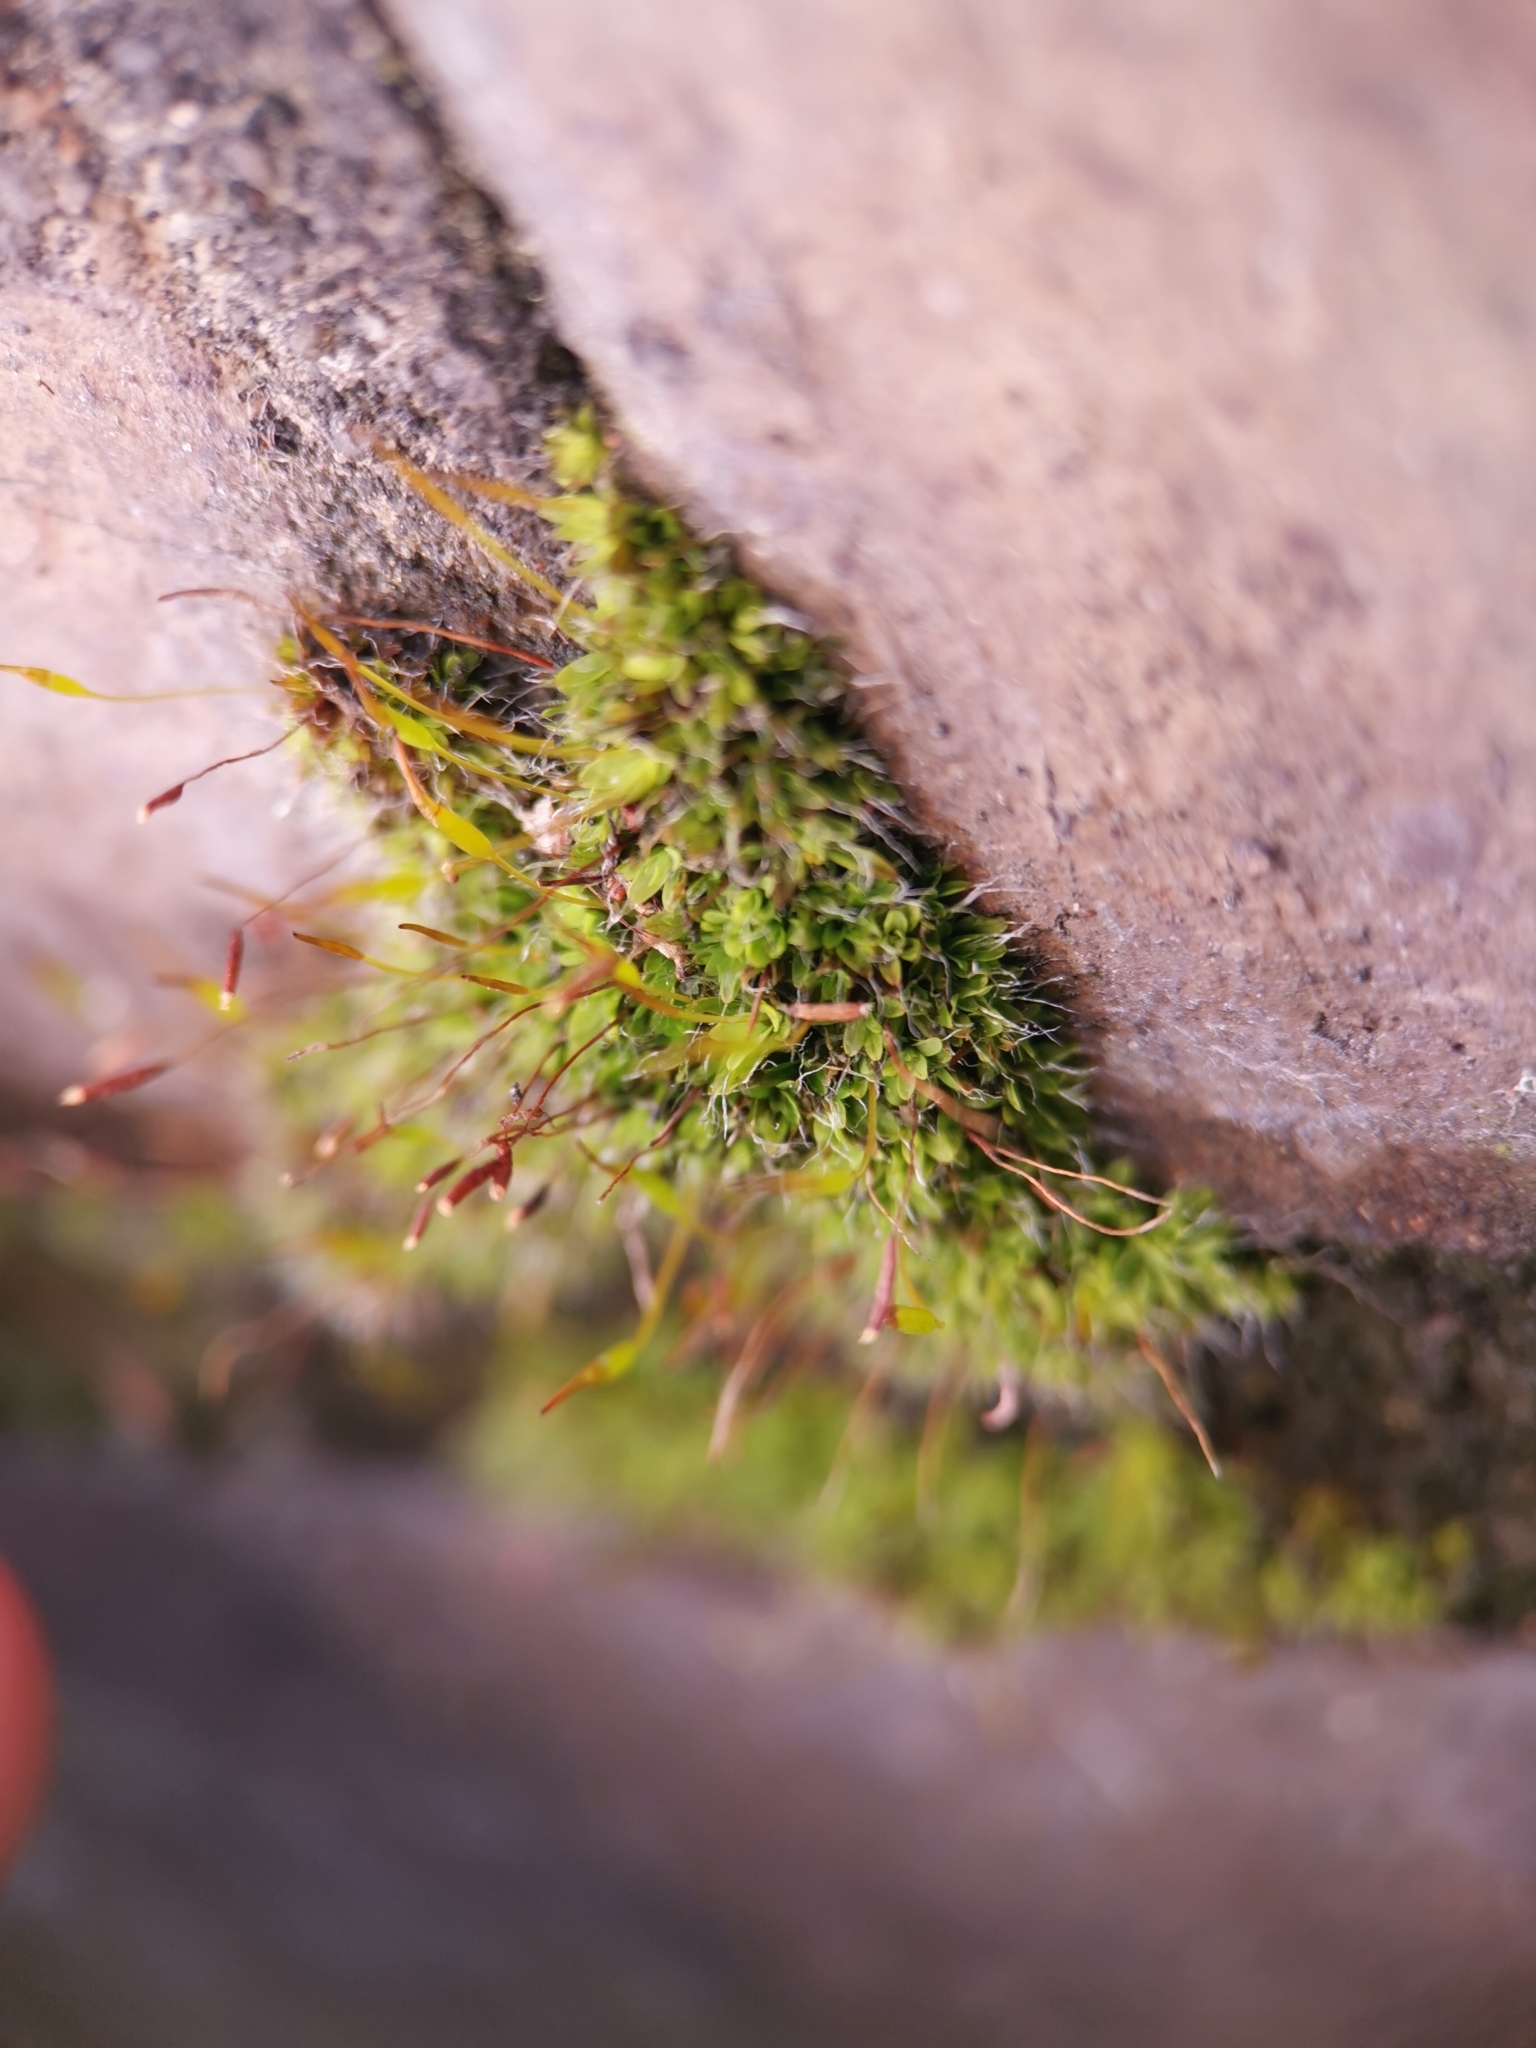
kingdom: Plantae
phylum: Bryophyta
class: Bryopsida
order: Pottiales
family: Pottiaceae
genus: Tortula
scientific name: Tortula muralis
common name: Wall screw-moss
